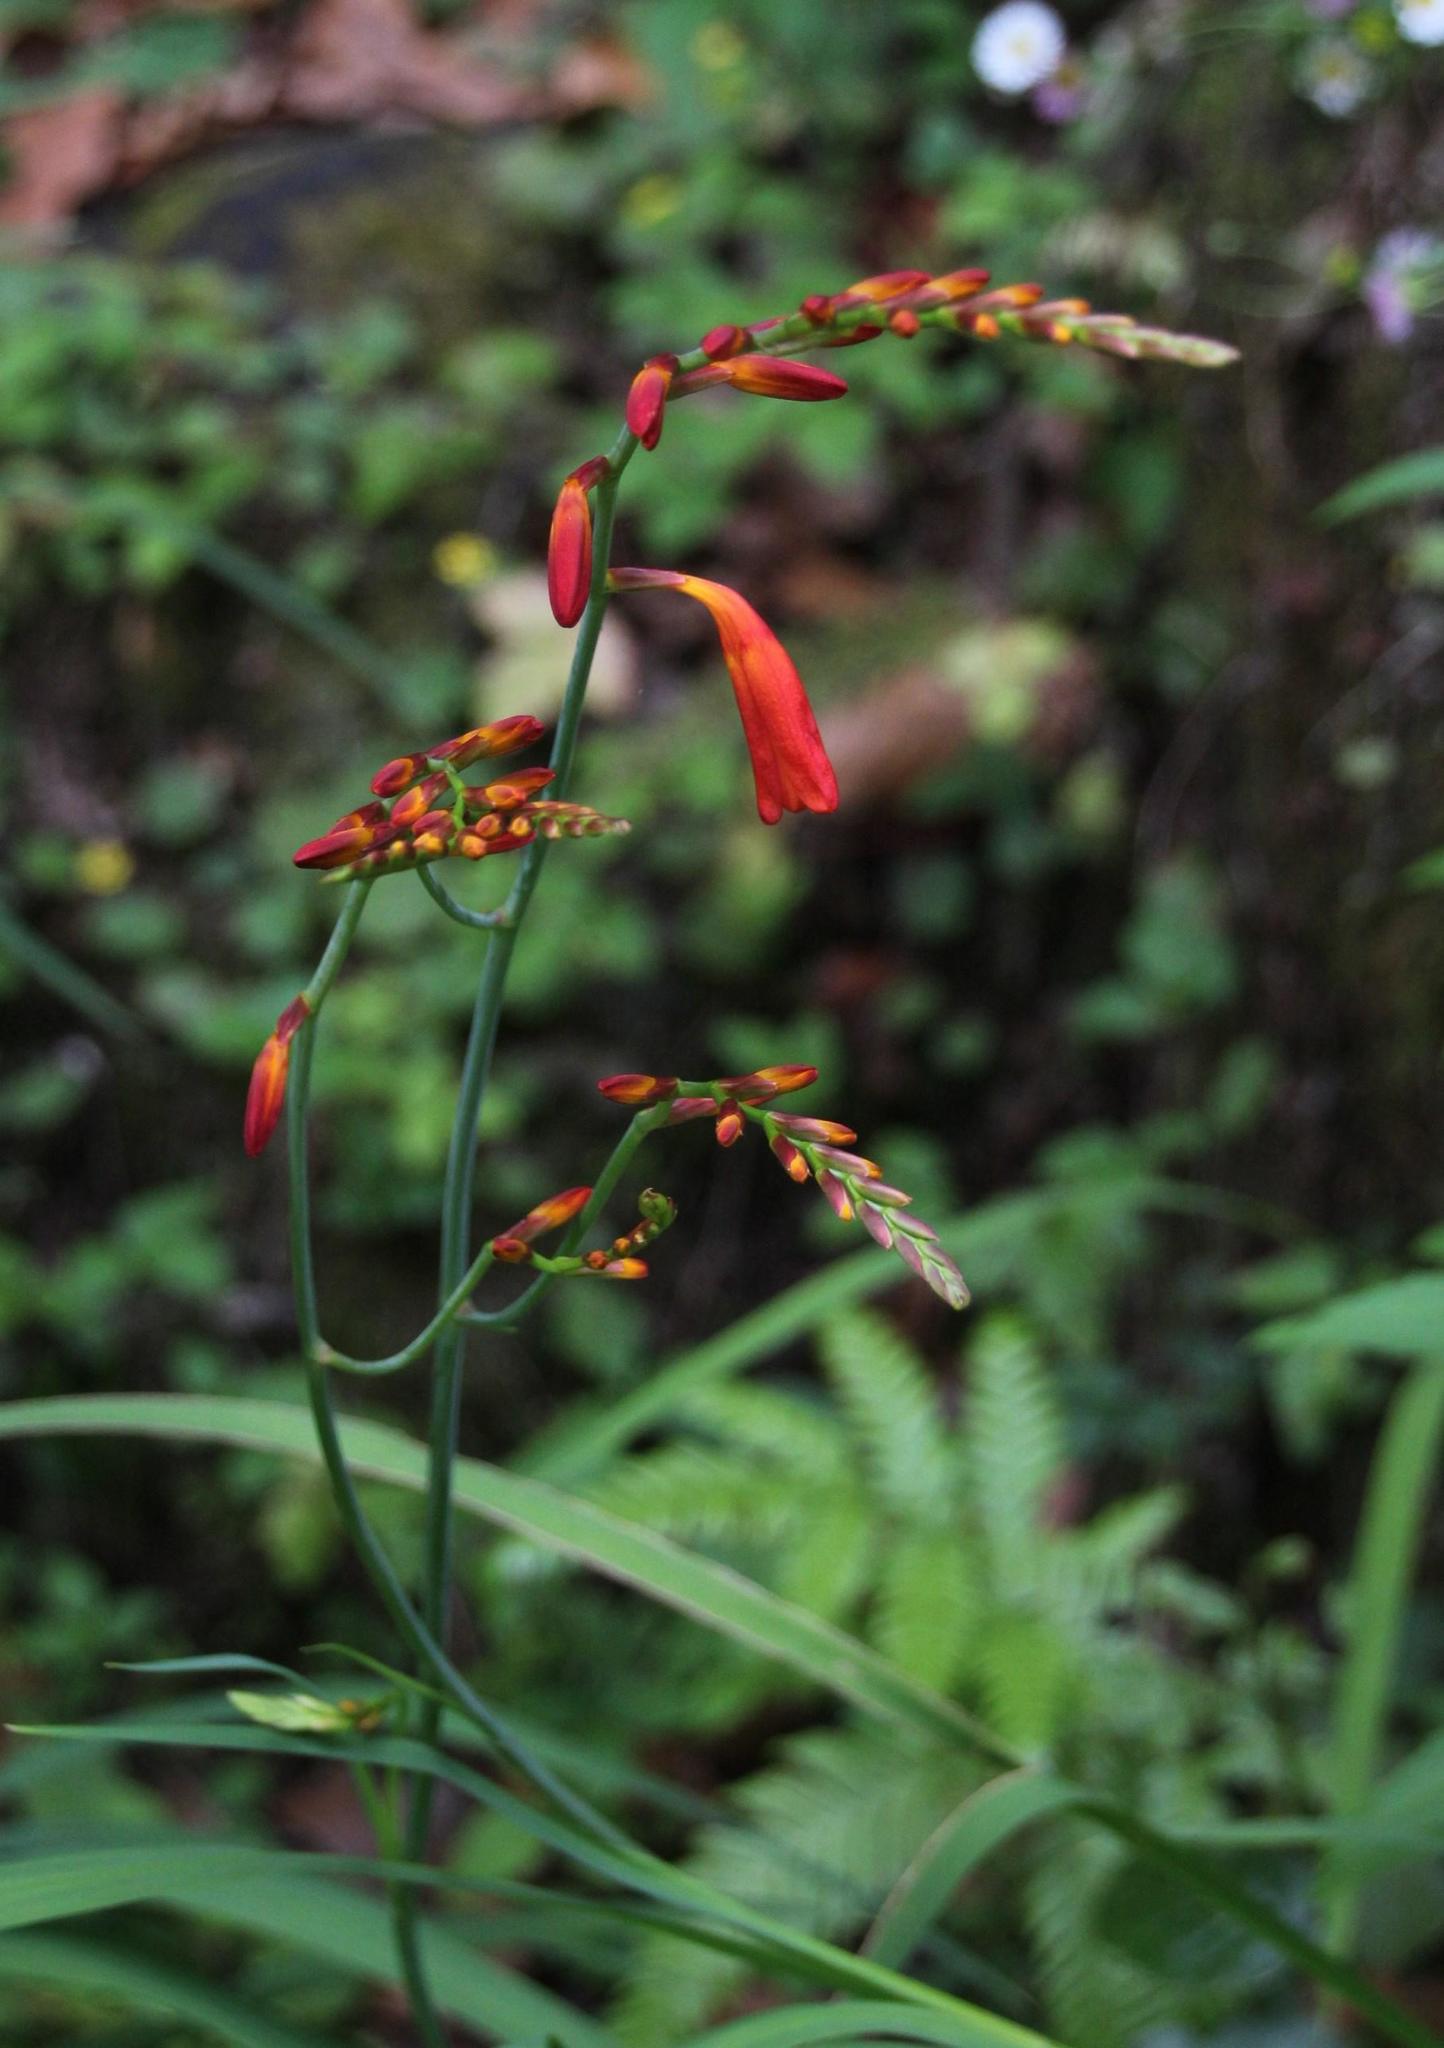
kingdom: Plantae
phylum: Tracheophyta
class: Liliopsida
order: Asparagales
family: Iridaceae
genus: Crocosmia
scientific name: Crocosmia crocosmiiflora
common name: Montbretia
